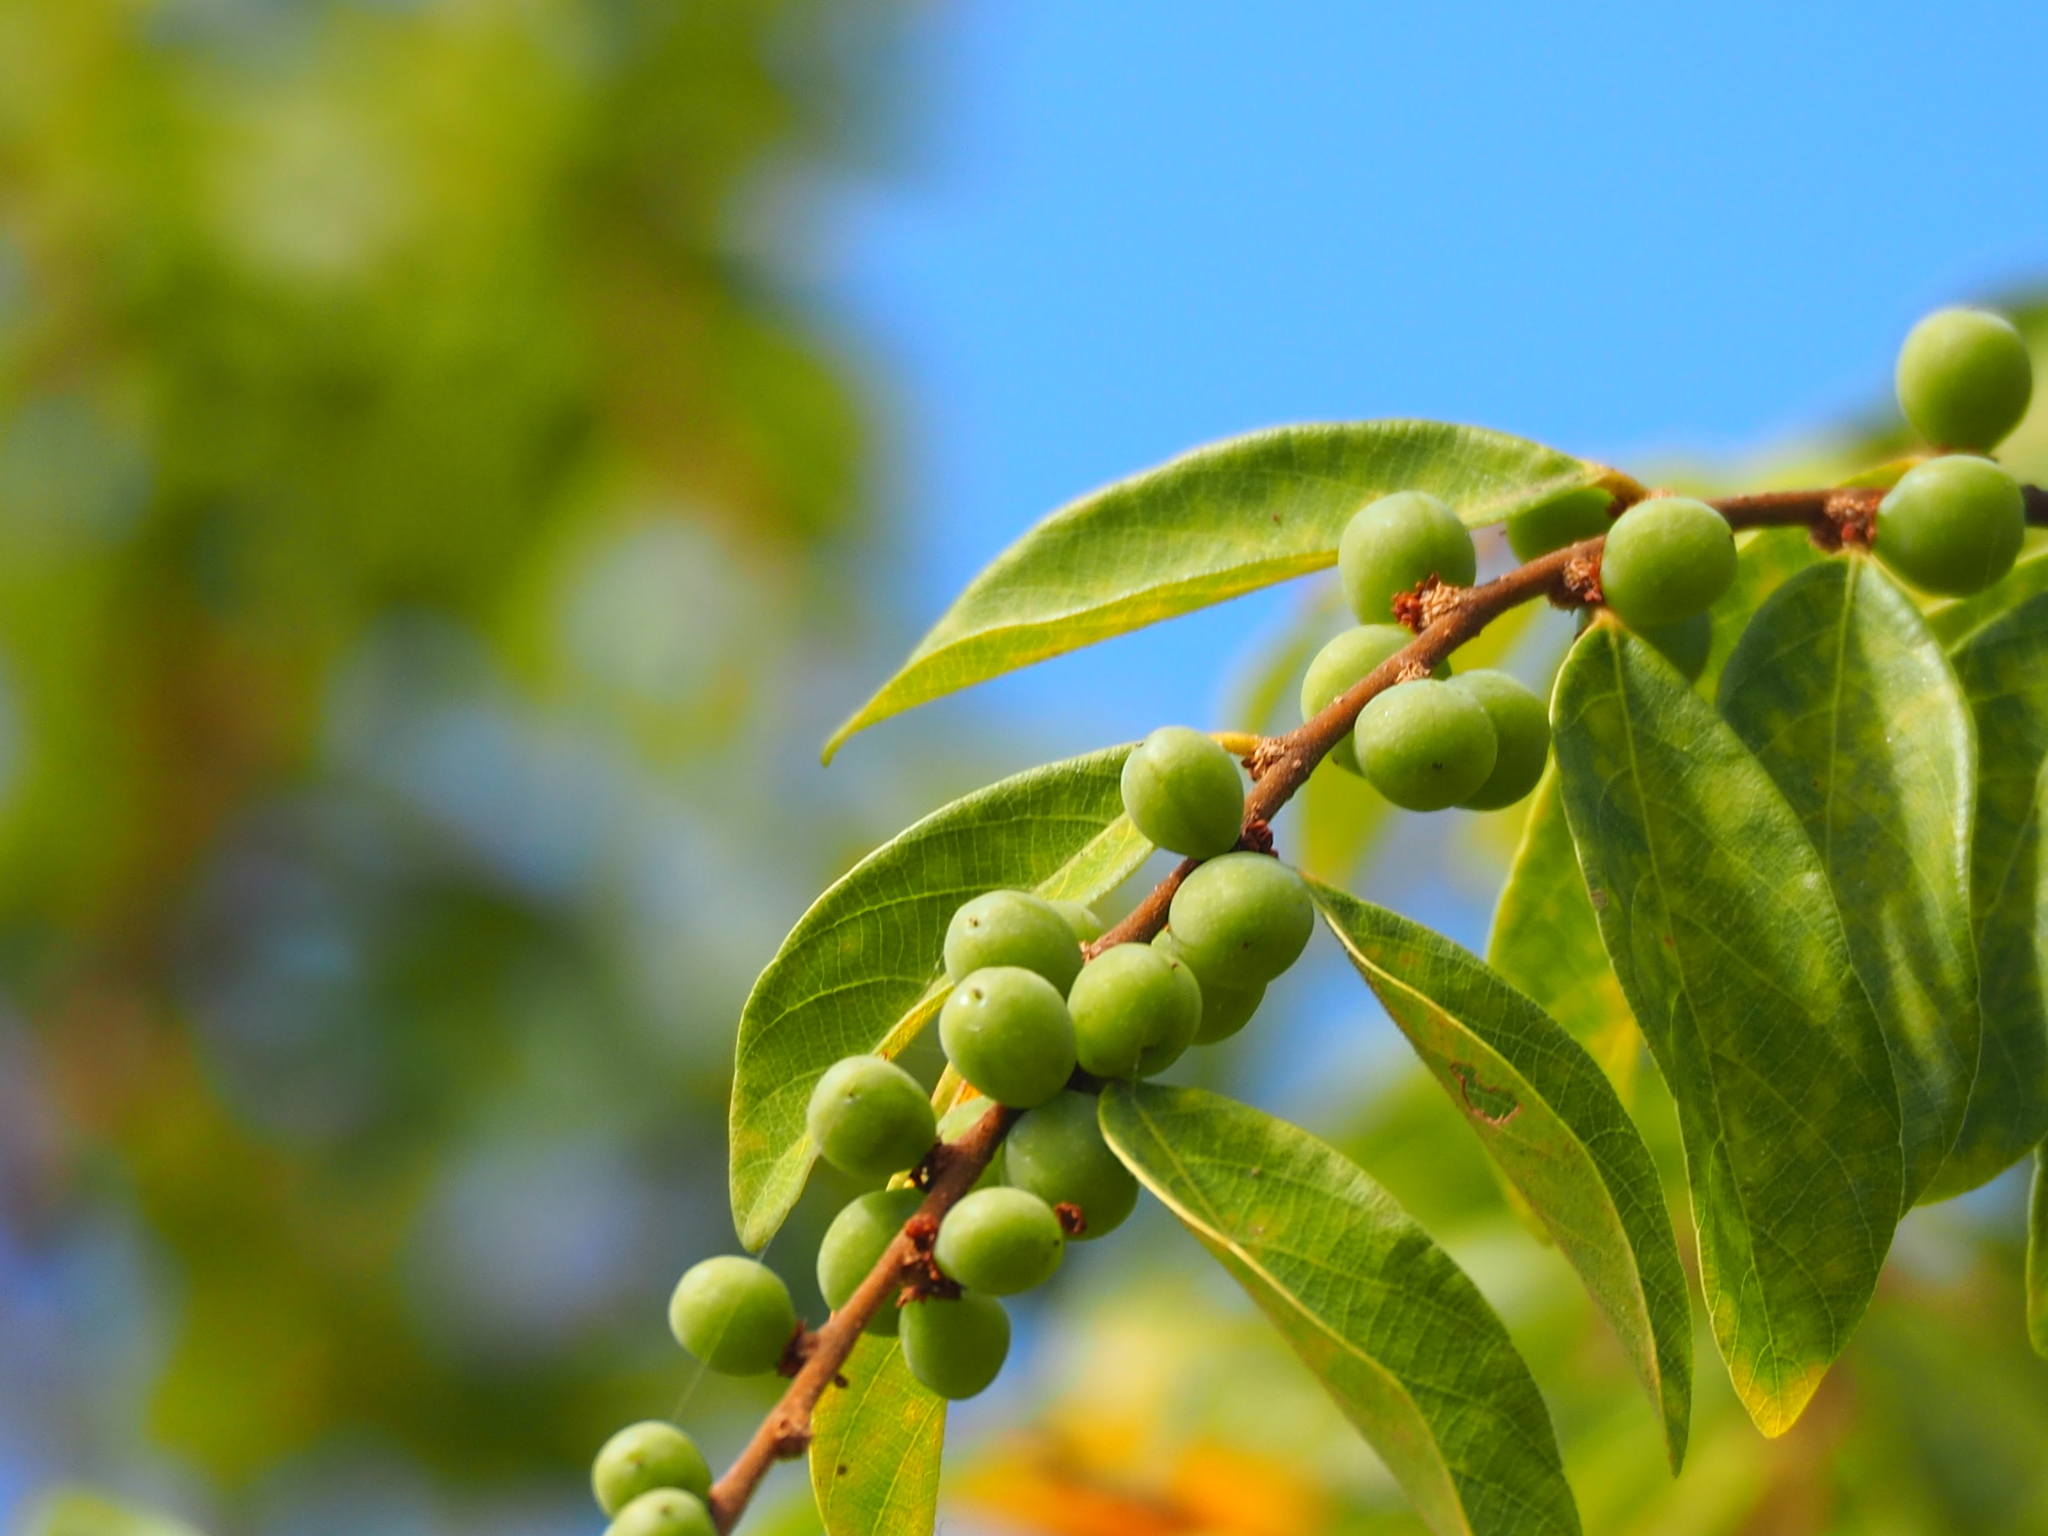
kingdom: Plantae
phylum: Tracheophyta
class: Magnoliopsida
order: Malpighiales
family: Phyllanthaceae
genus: Bridelia
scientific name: Bridelia tomentosa
